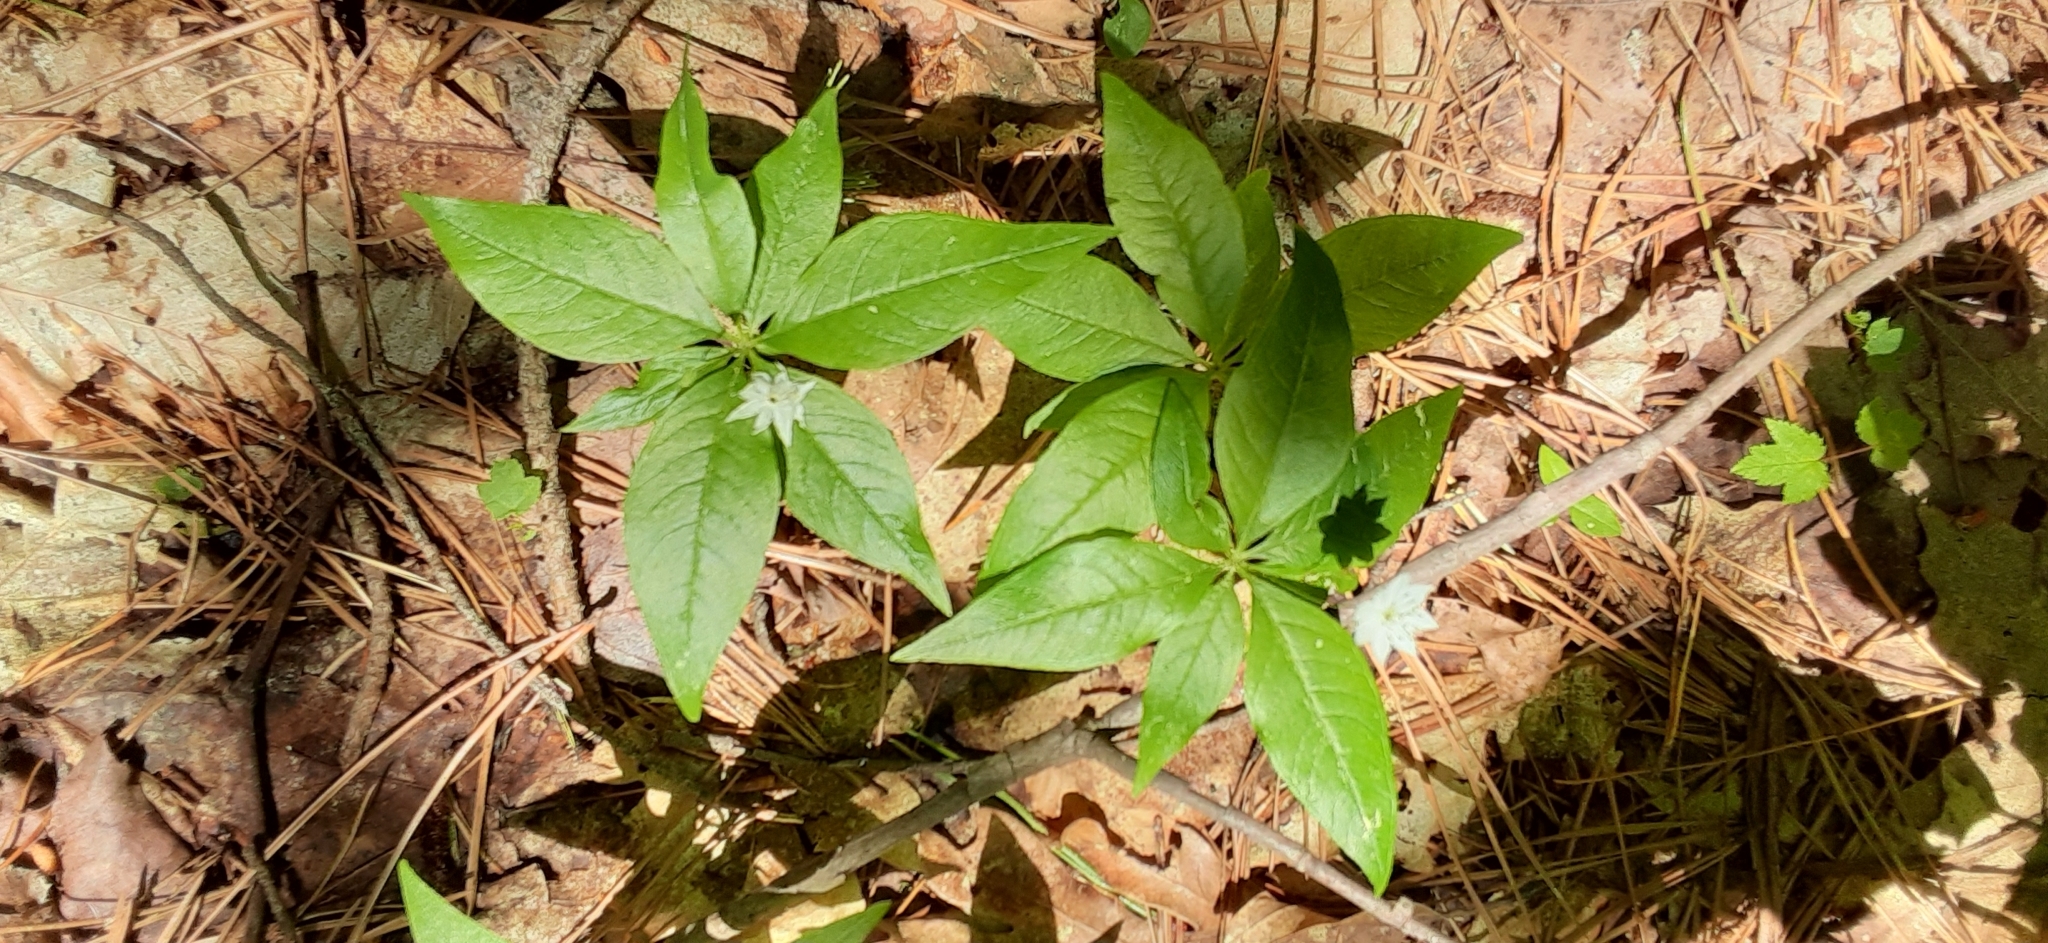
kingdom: Plantae
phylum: Tracheophyta
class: Magnoliopsida
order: Ericales
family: Primulaceae
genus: Lysimachia
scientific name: Lysimachia borealis
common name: American starflower
